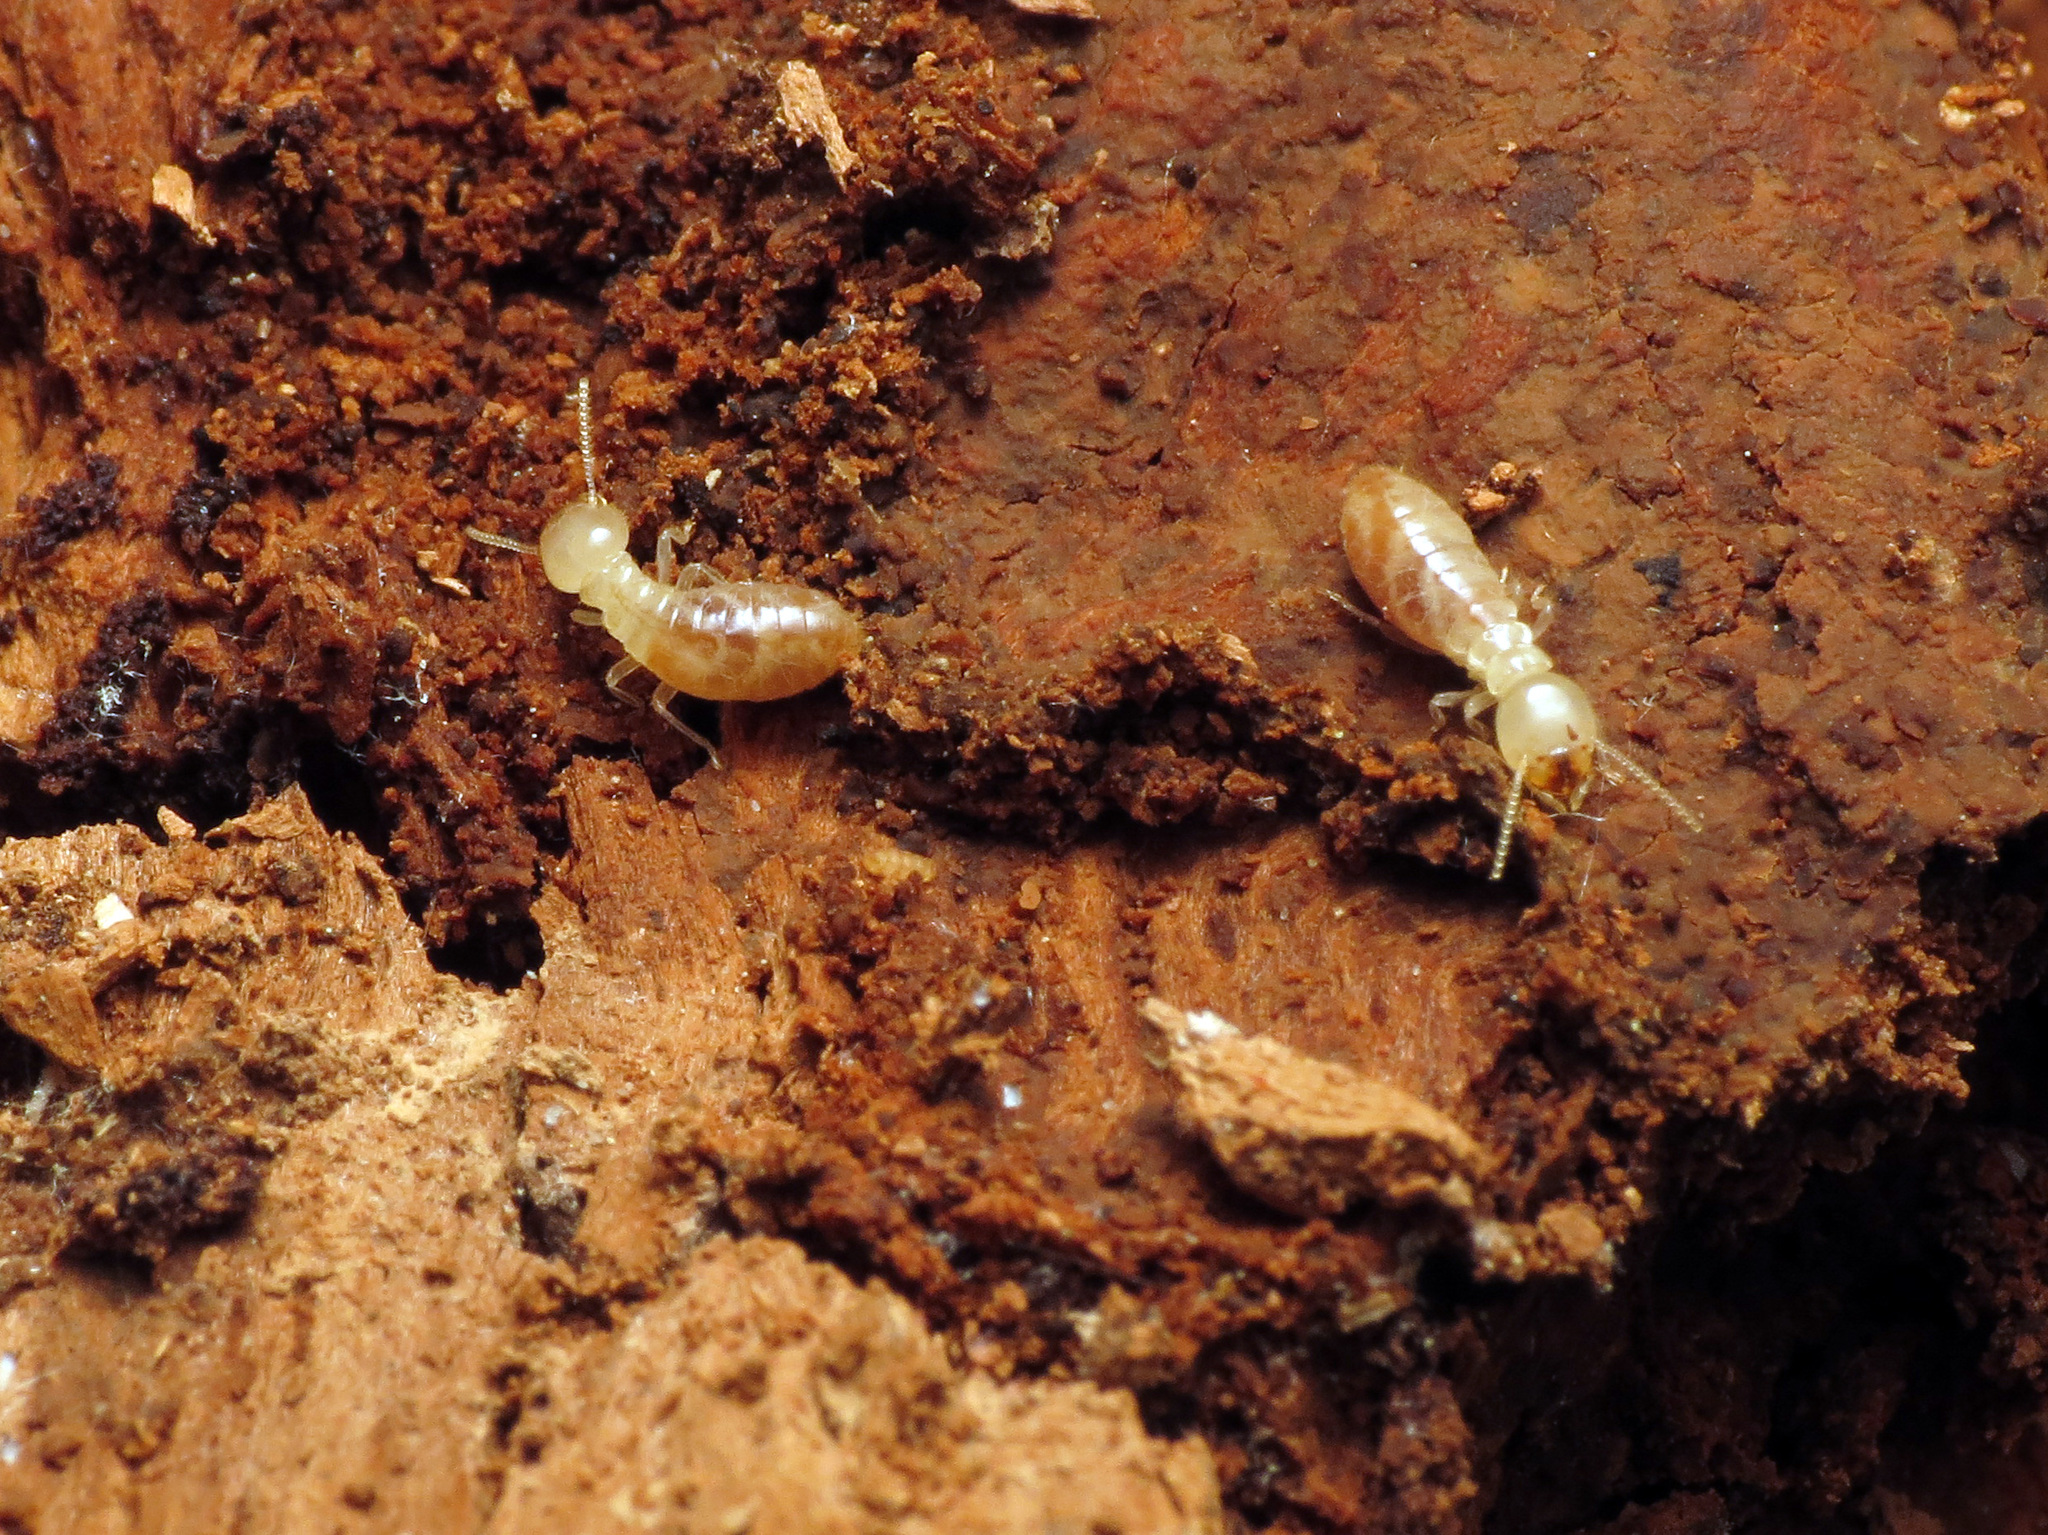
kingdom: Animalia
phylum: Arthropoda
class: Insecta
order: Blattodea
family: Rhinotermitidae
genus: Reticulitermes
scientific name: Reticulitermes flavipes
